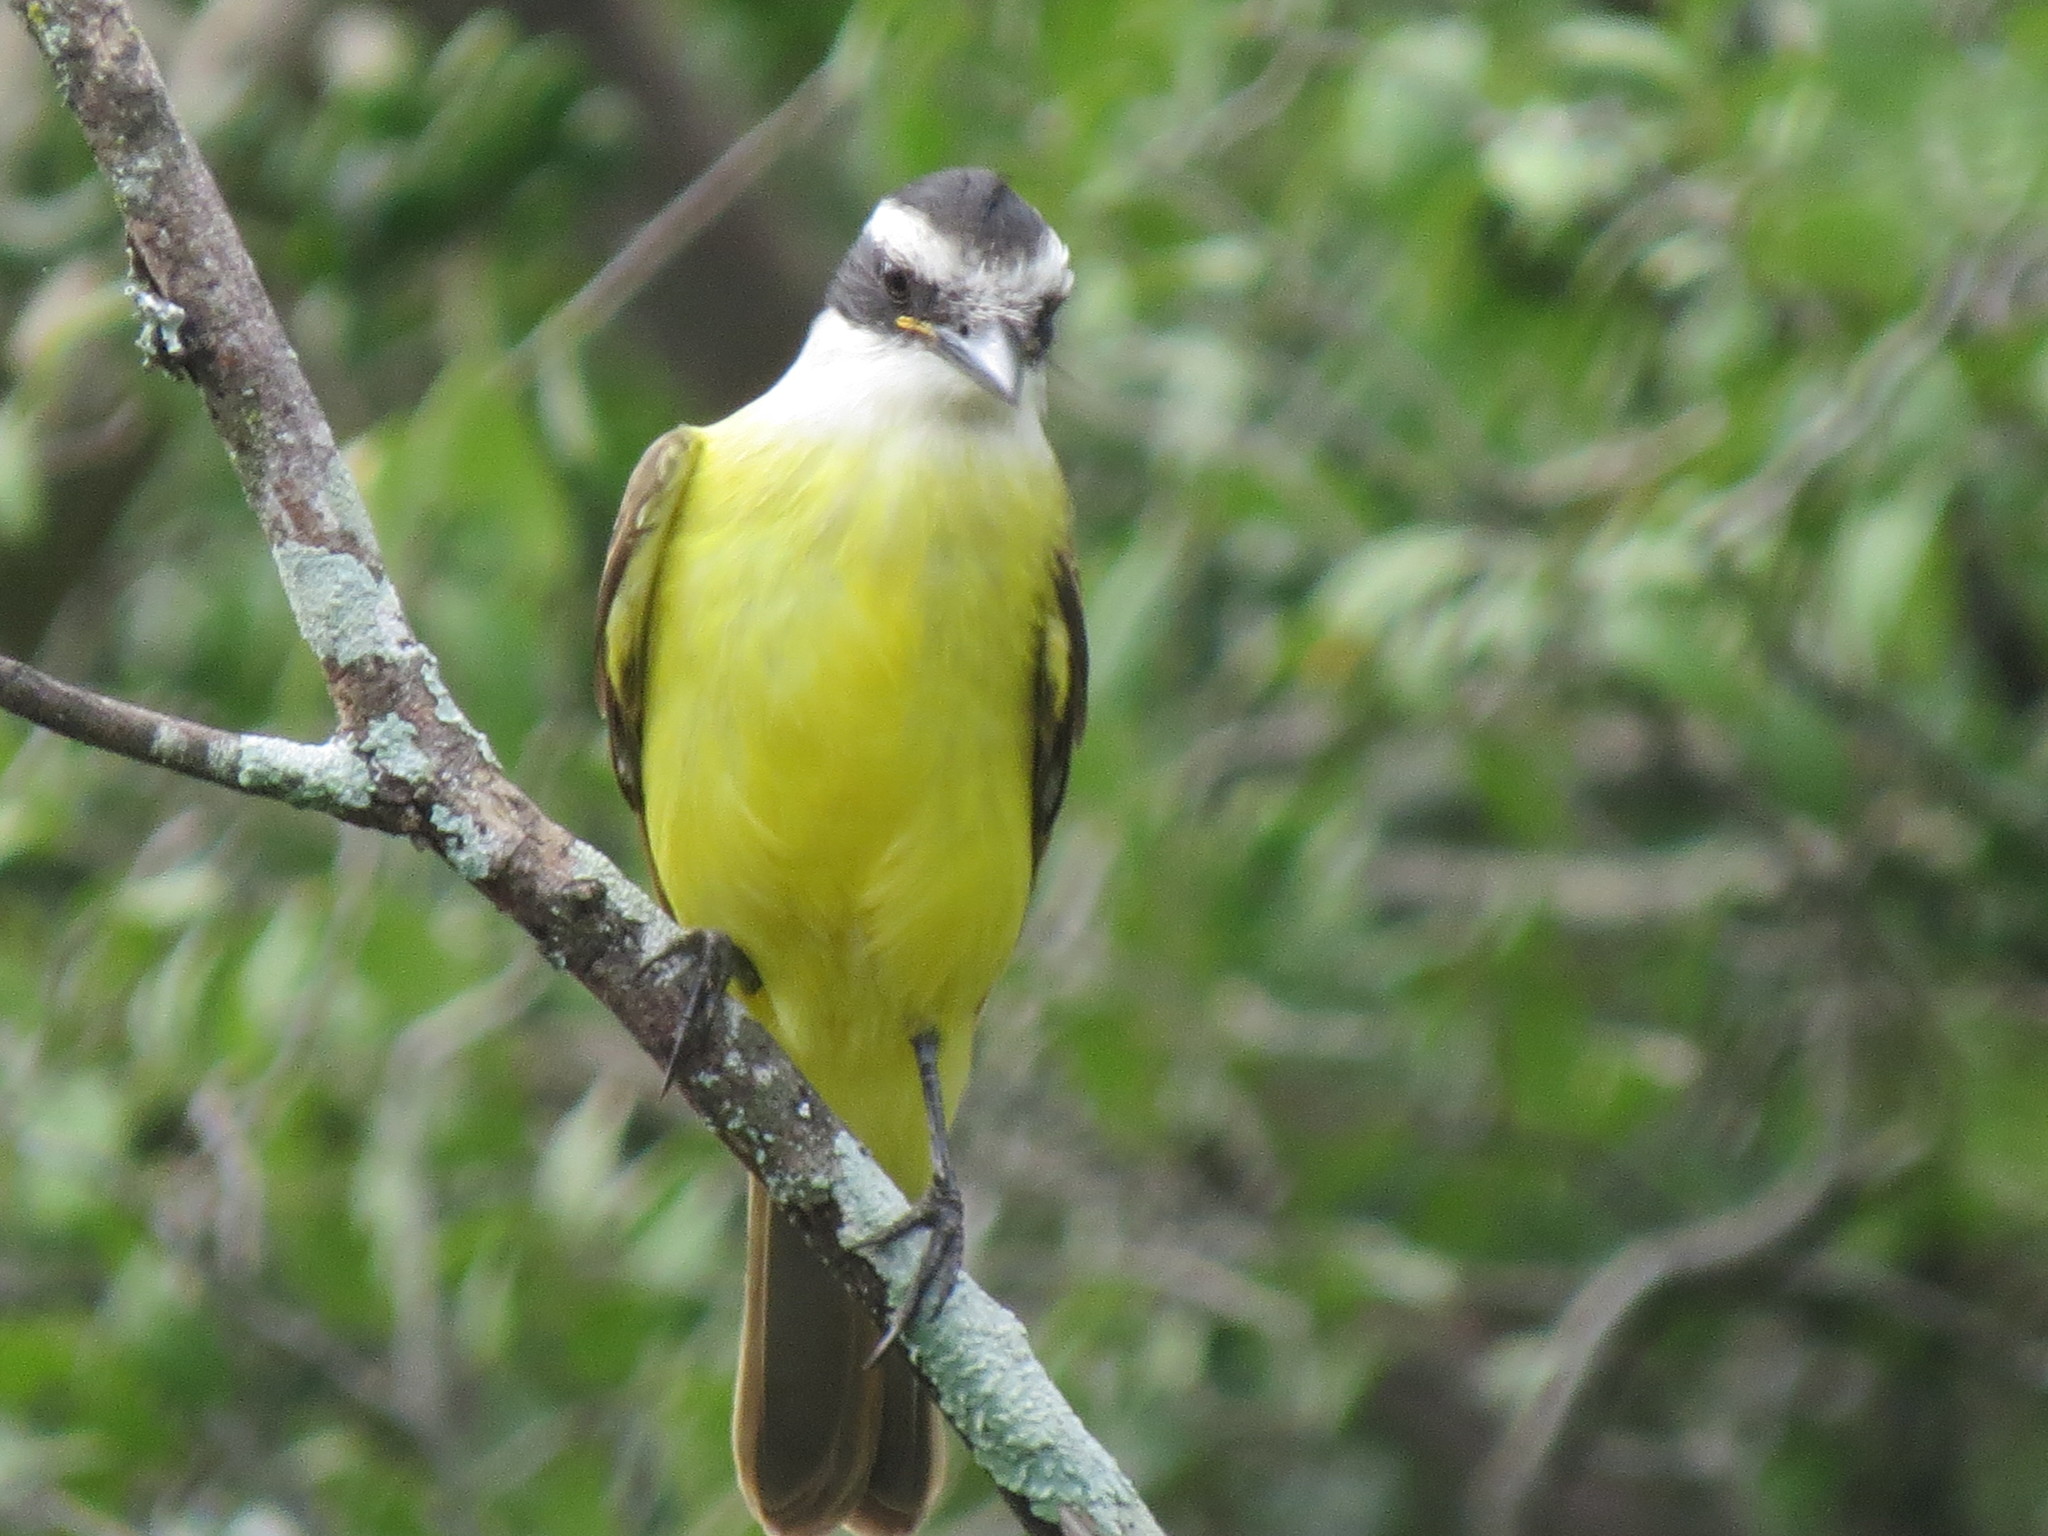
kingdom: Animalia
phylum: Chordata
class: Aves
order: Passeriformes
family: Tyrannidae
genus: Pitangus
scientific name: Pitangus sulphuratus
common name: Great kiskadee
